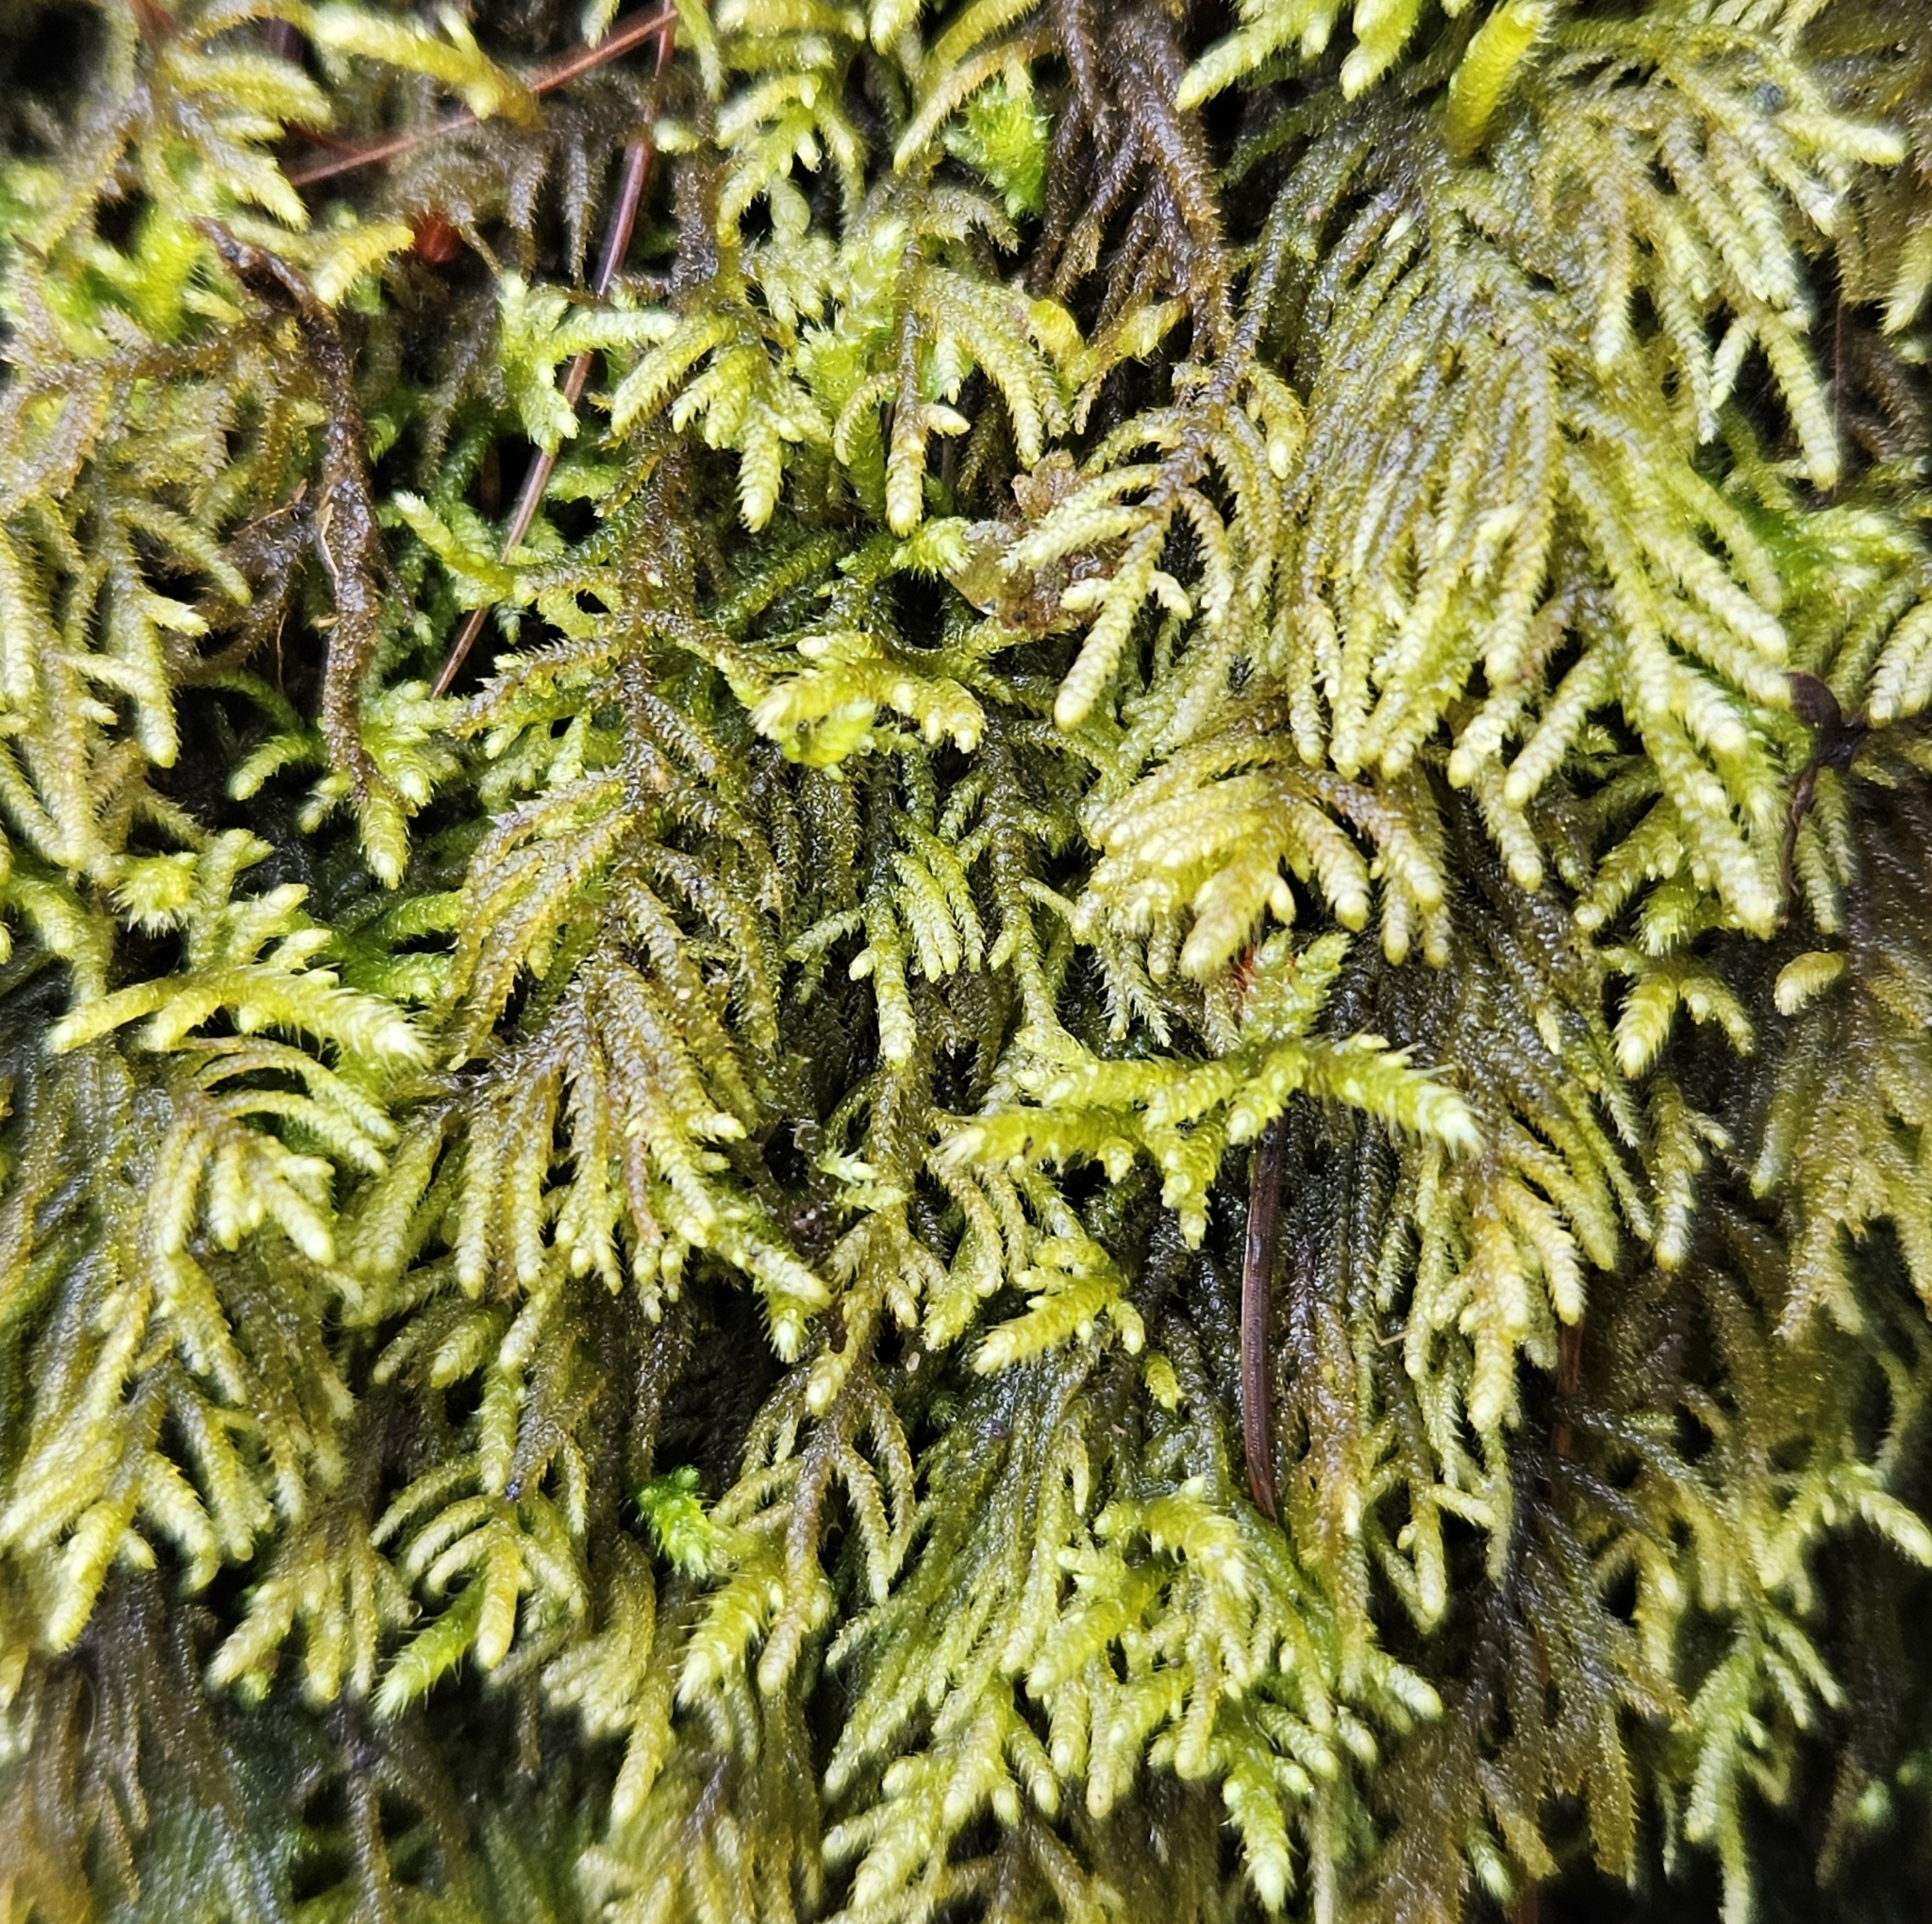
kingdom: Plantae
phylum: Bryophyta
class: Bryopsida
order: Hypnales
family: Myuriaceae
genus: Hyocomium
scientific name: Hyocomium armoricum
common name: Flagellate feather-moss
